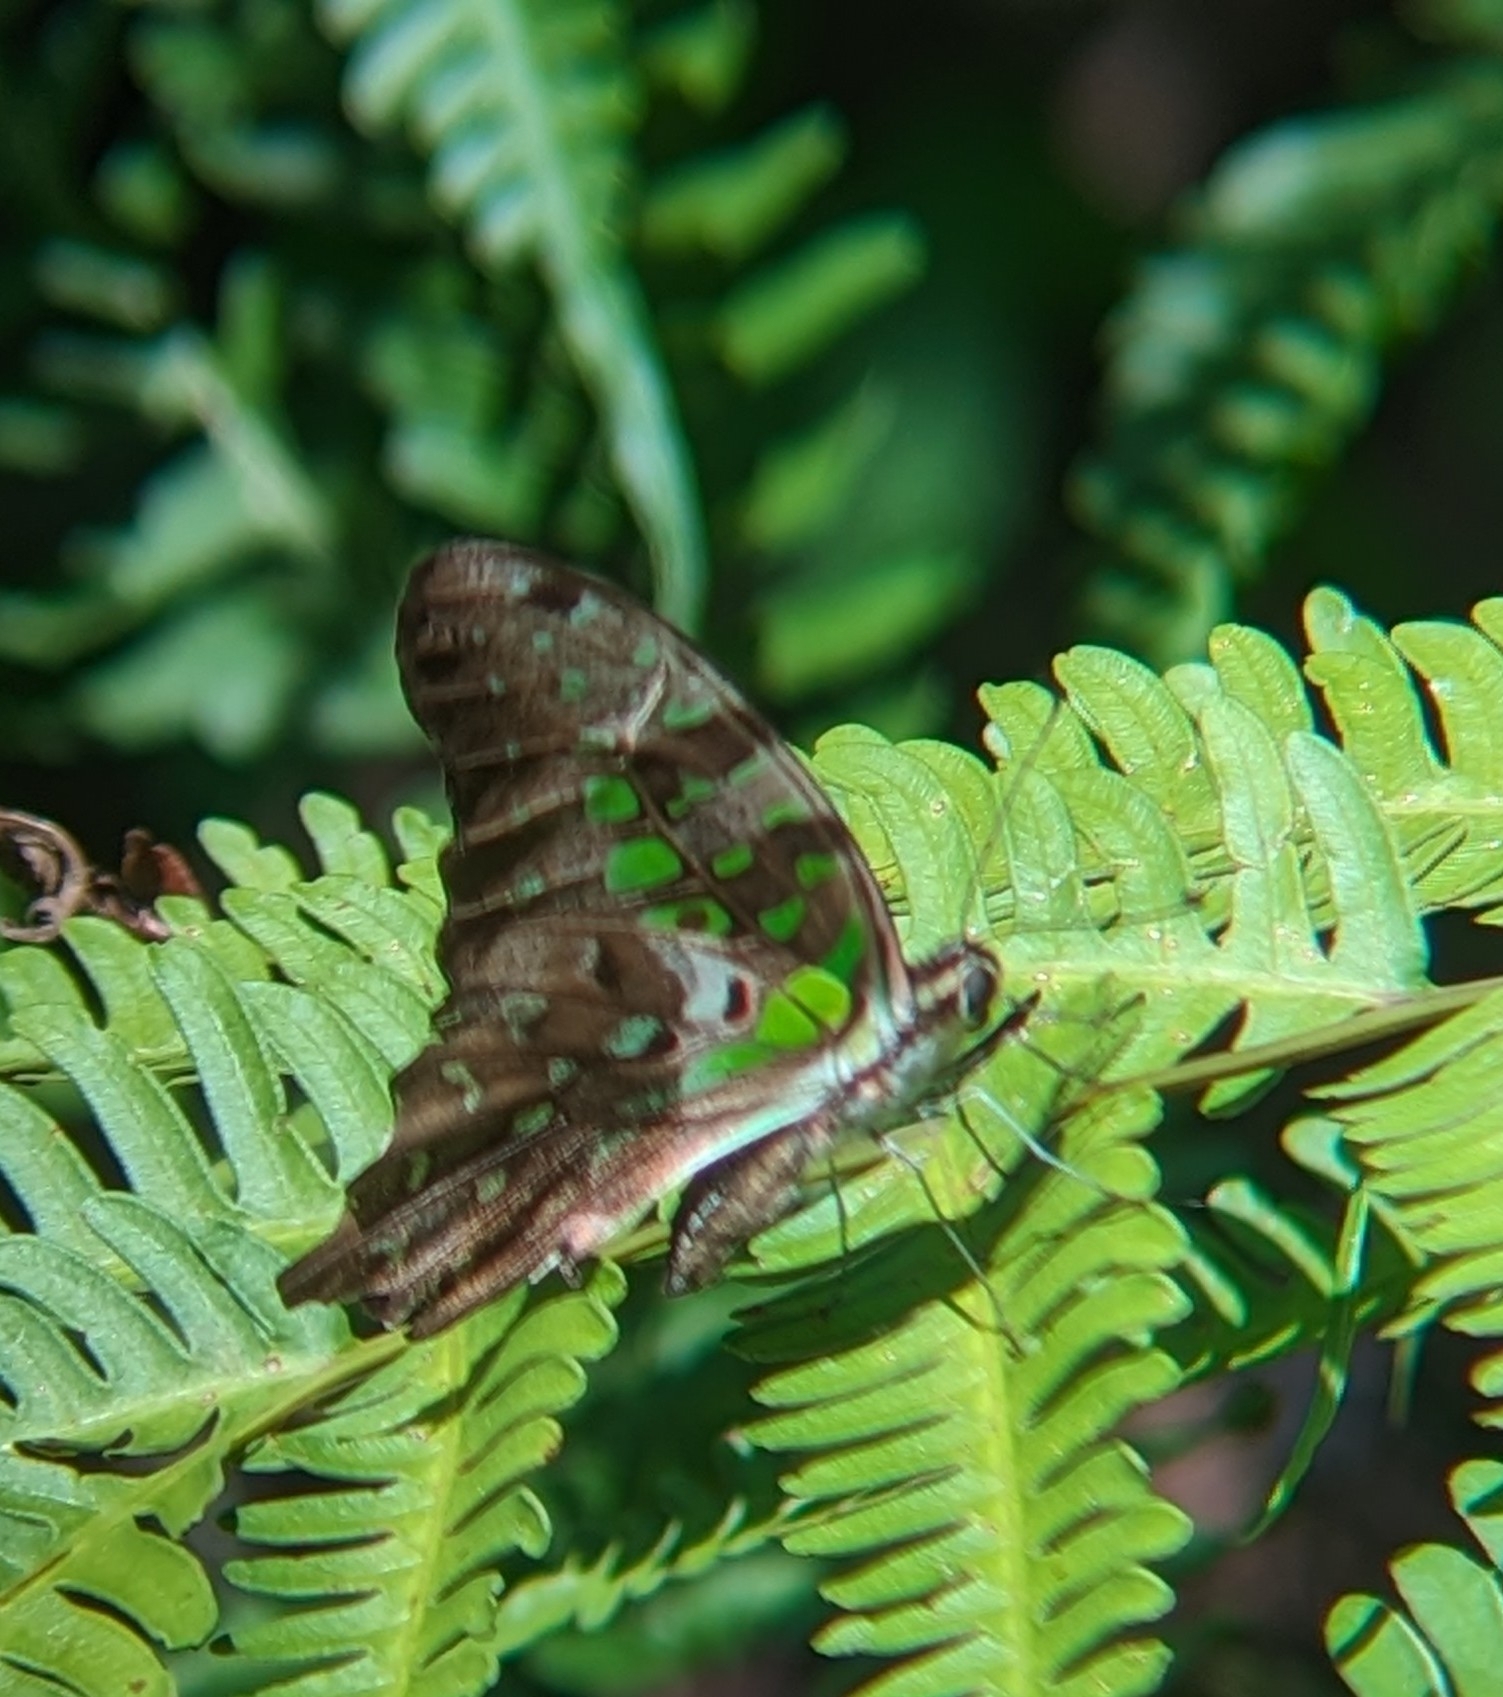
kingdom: Animalia
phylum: Arthropoda
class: Insecta
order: Lepidoptera
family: Papilionidae
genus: Graphium
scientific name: Graphium agamemnon
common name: Tailed jay
